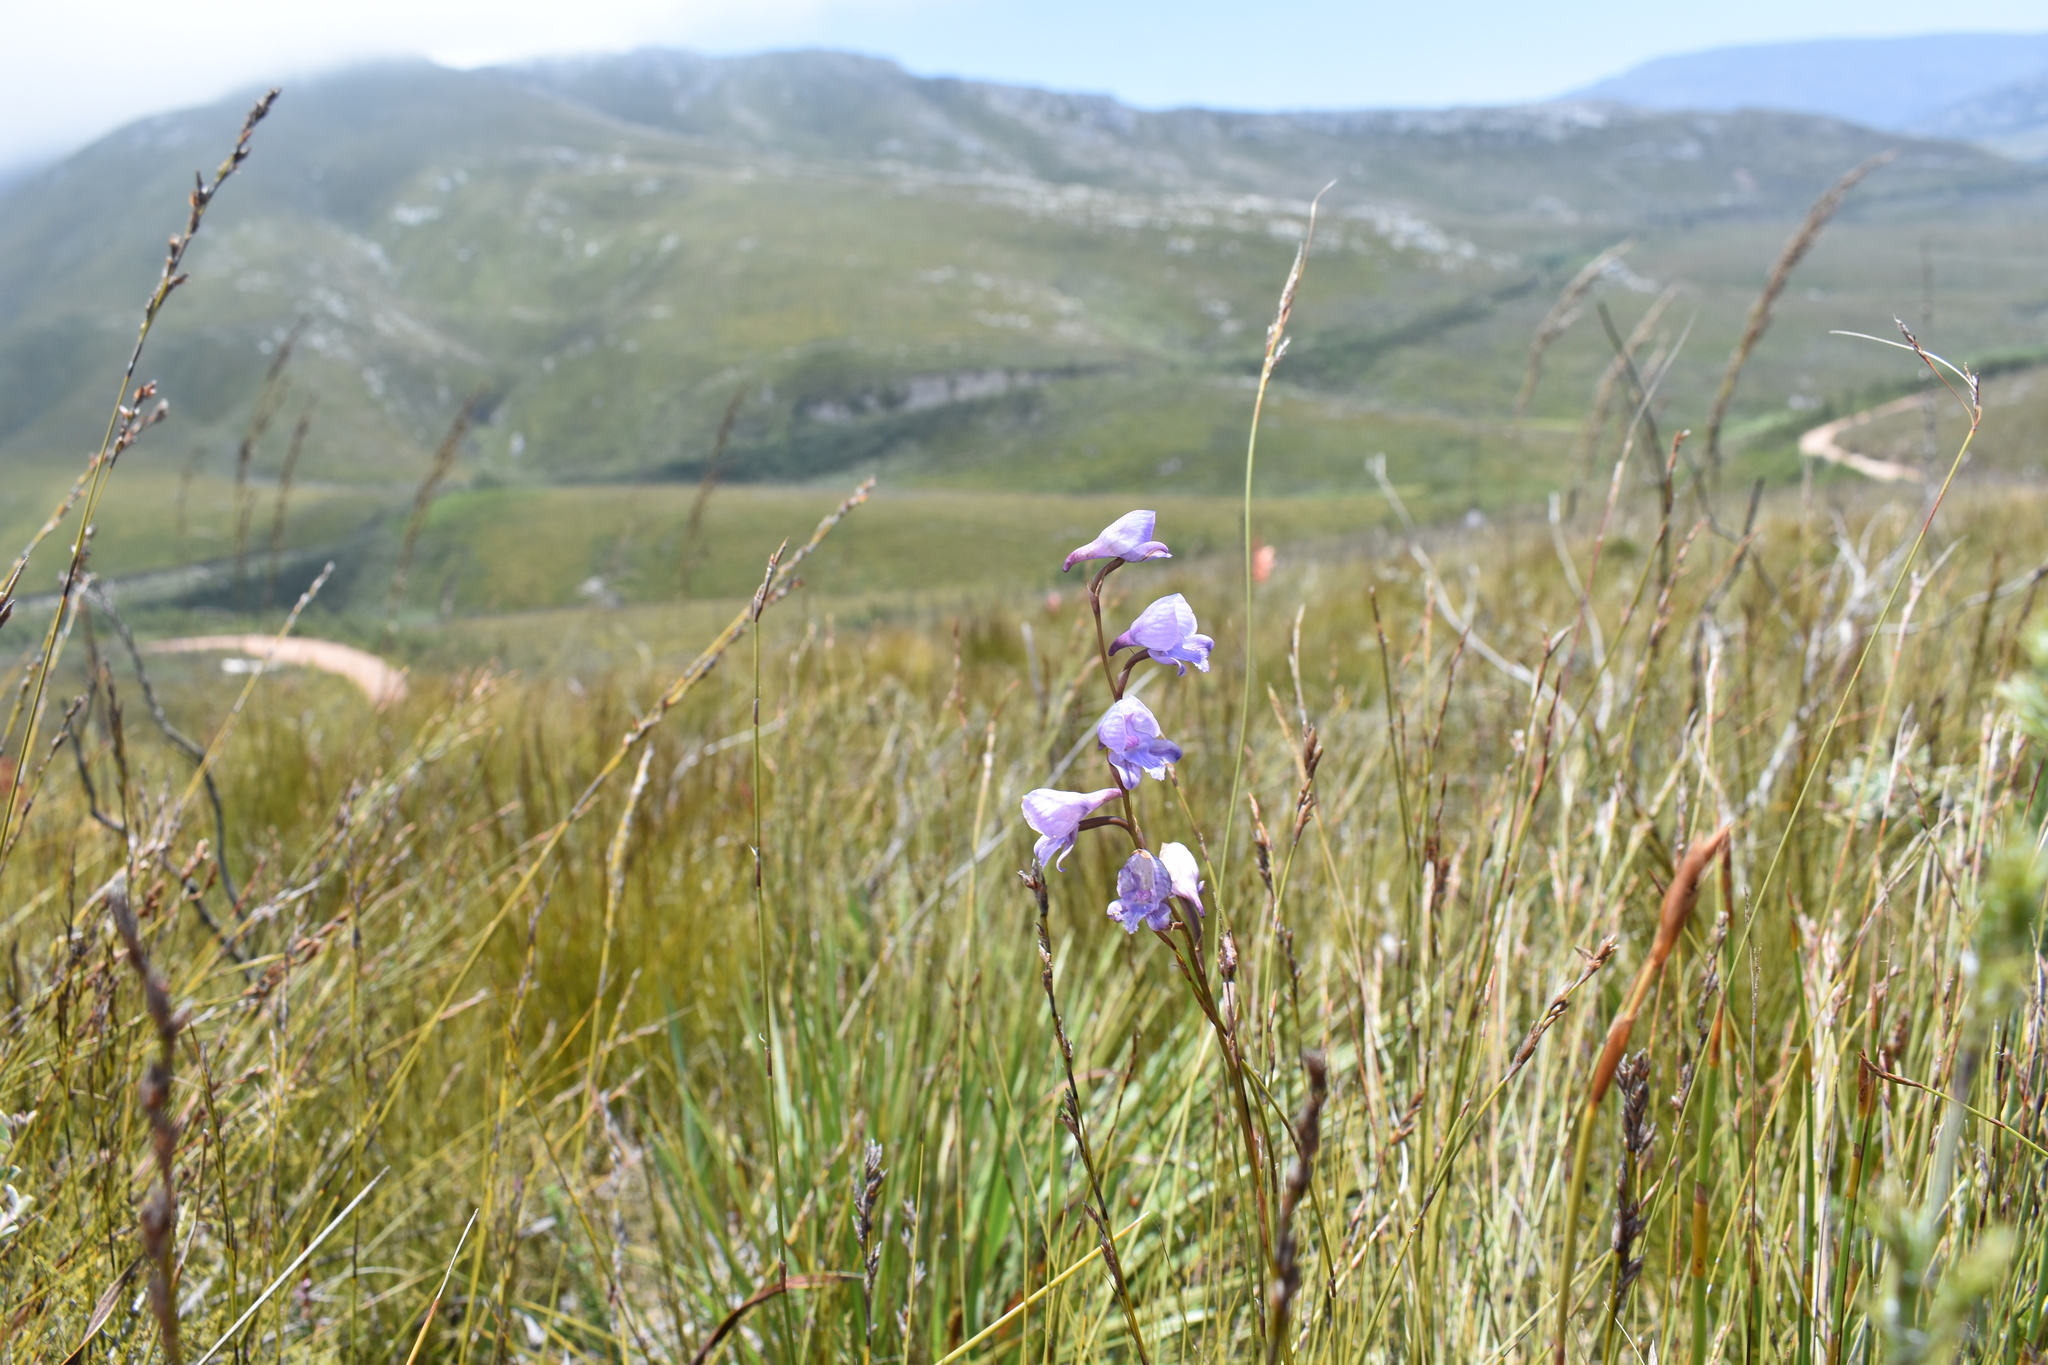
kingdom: Plantae
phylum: Tracheophyta
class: Liliopsida
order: Asparagales
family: Orchidaceae
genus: Disa
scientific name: Disa hians
